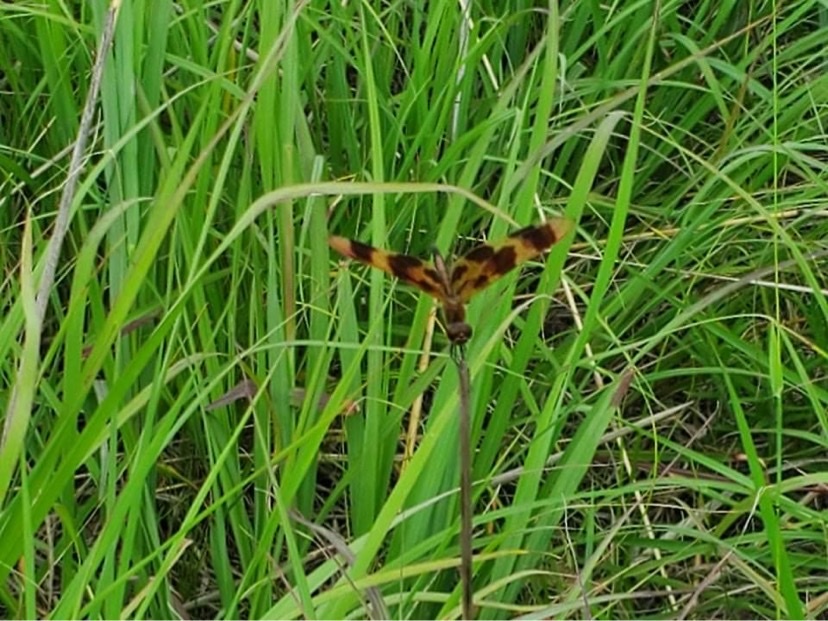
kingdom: Animalia
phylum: Arthropoda
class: Insecta
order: Odonata
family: Libellulidae
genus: Celithemis
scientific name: Celithemis eponina
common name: Halloween pennant
